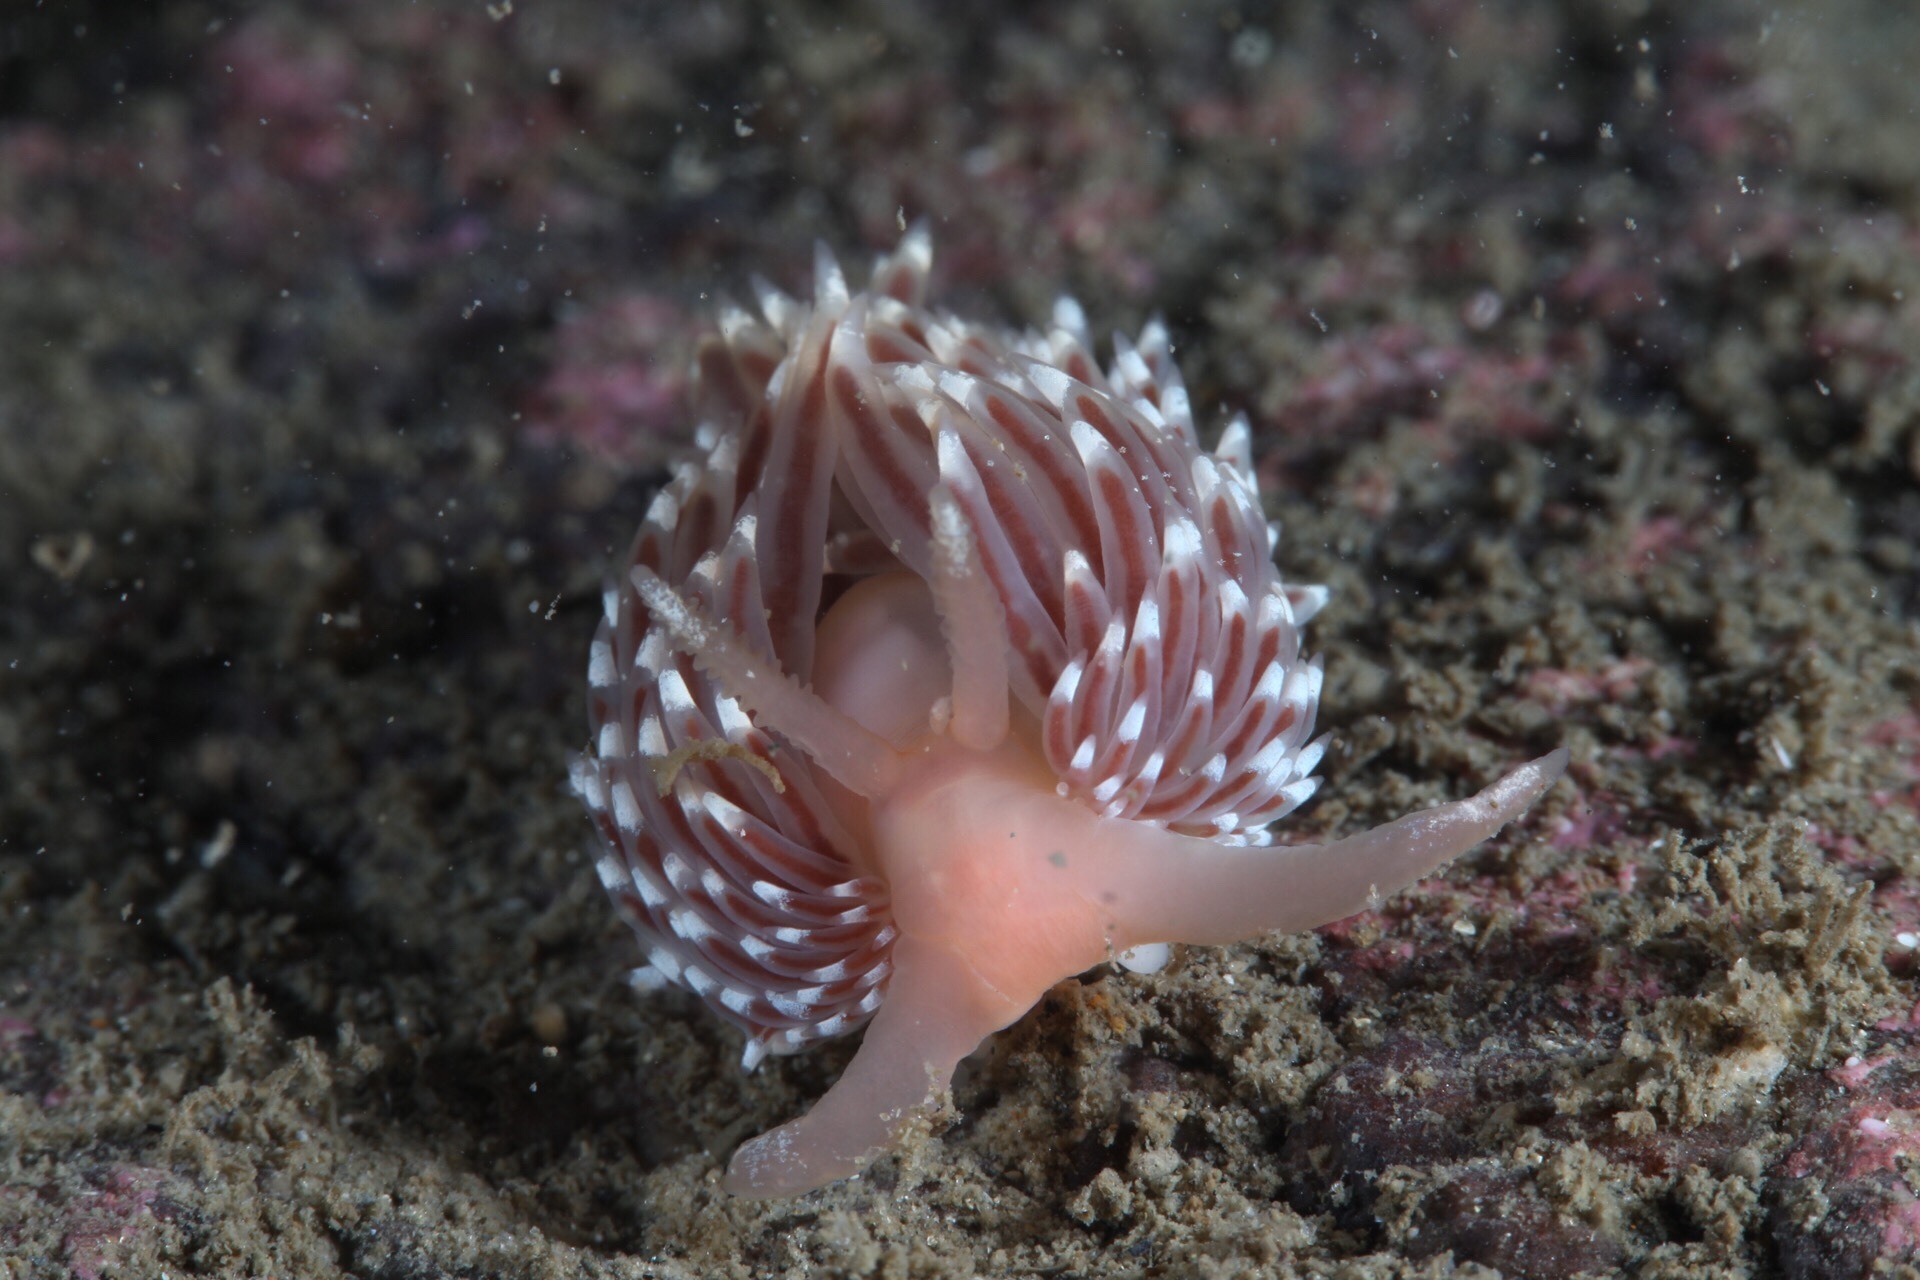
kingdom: Animalia
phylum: Mollusca
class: Gastropoda
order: Nudibranchia
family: Facelinidae
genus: Facelina
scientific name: Facelina bostoniensis
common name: Boston facelina
